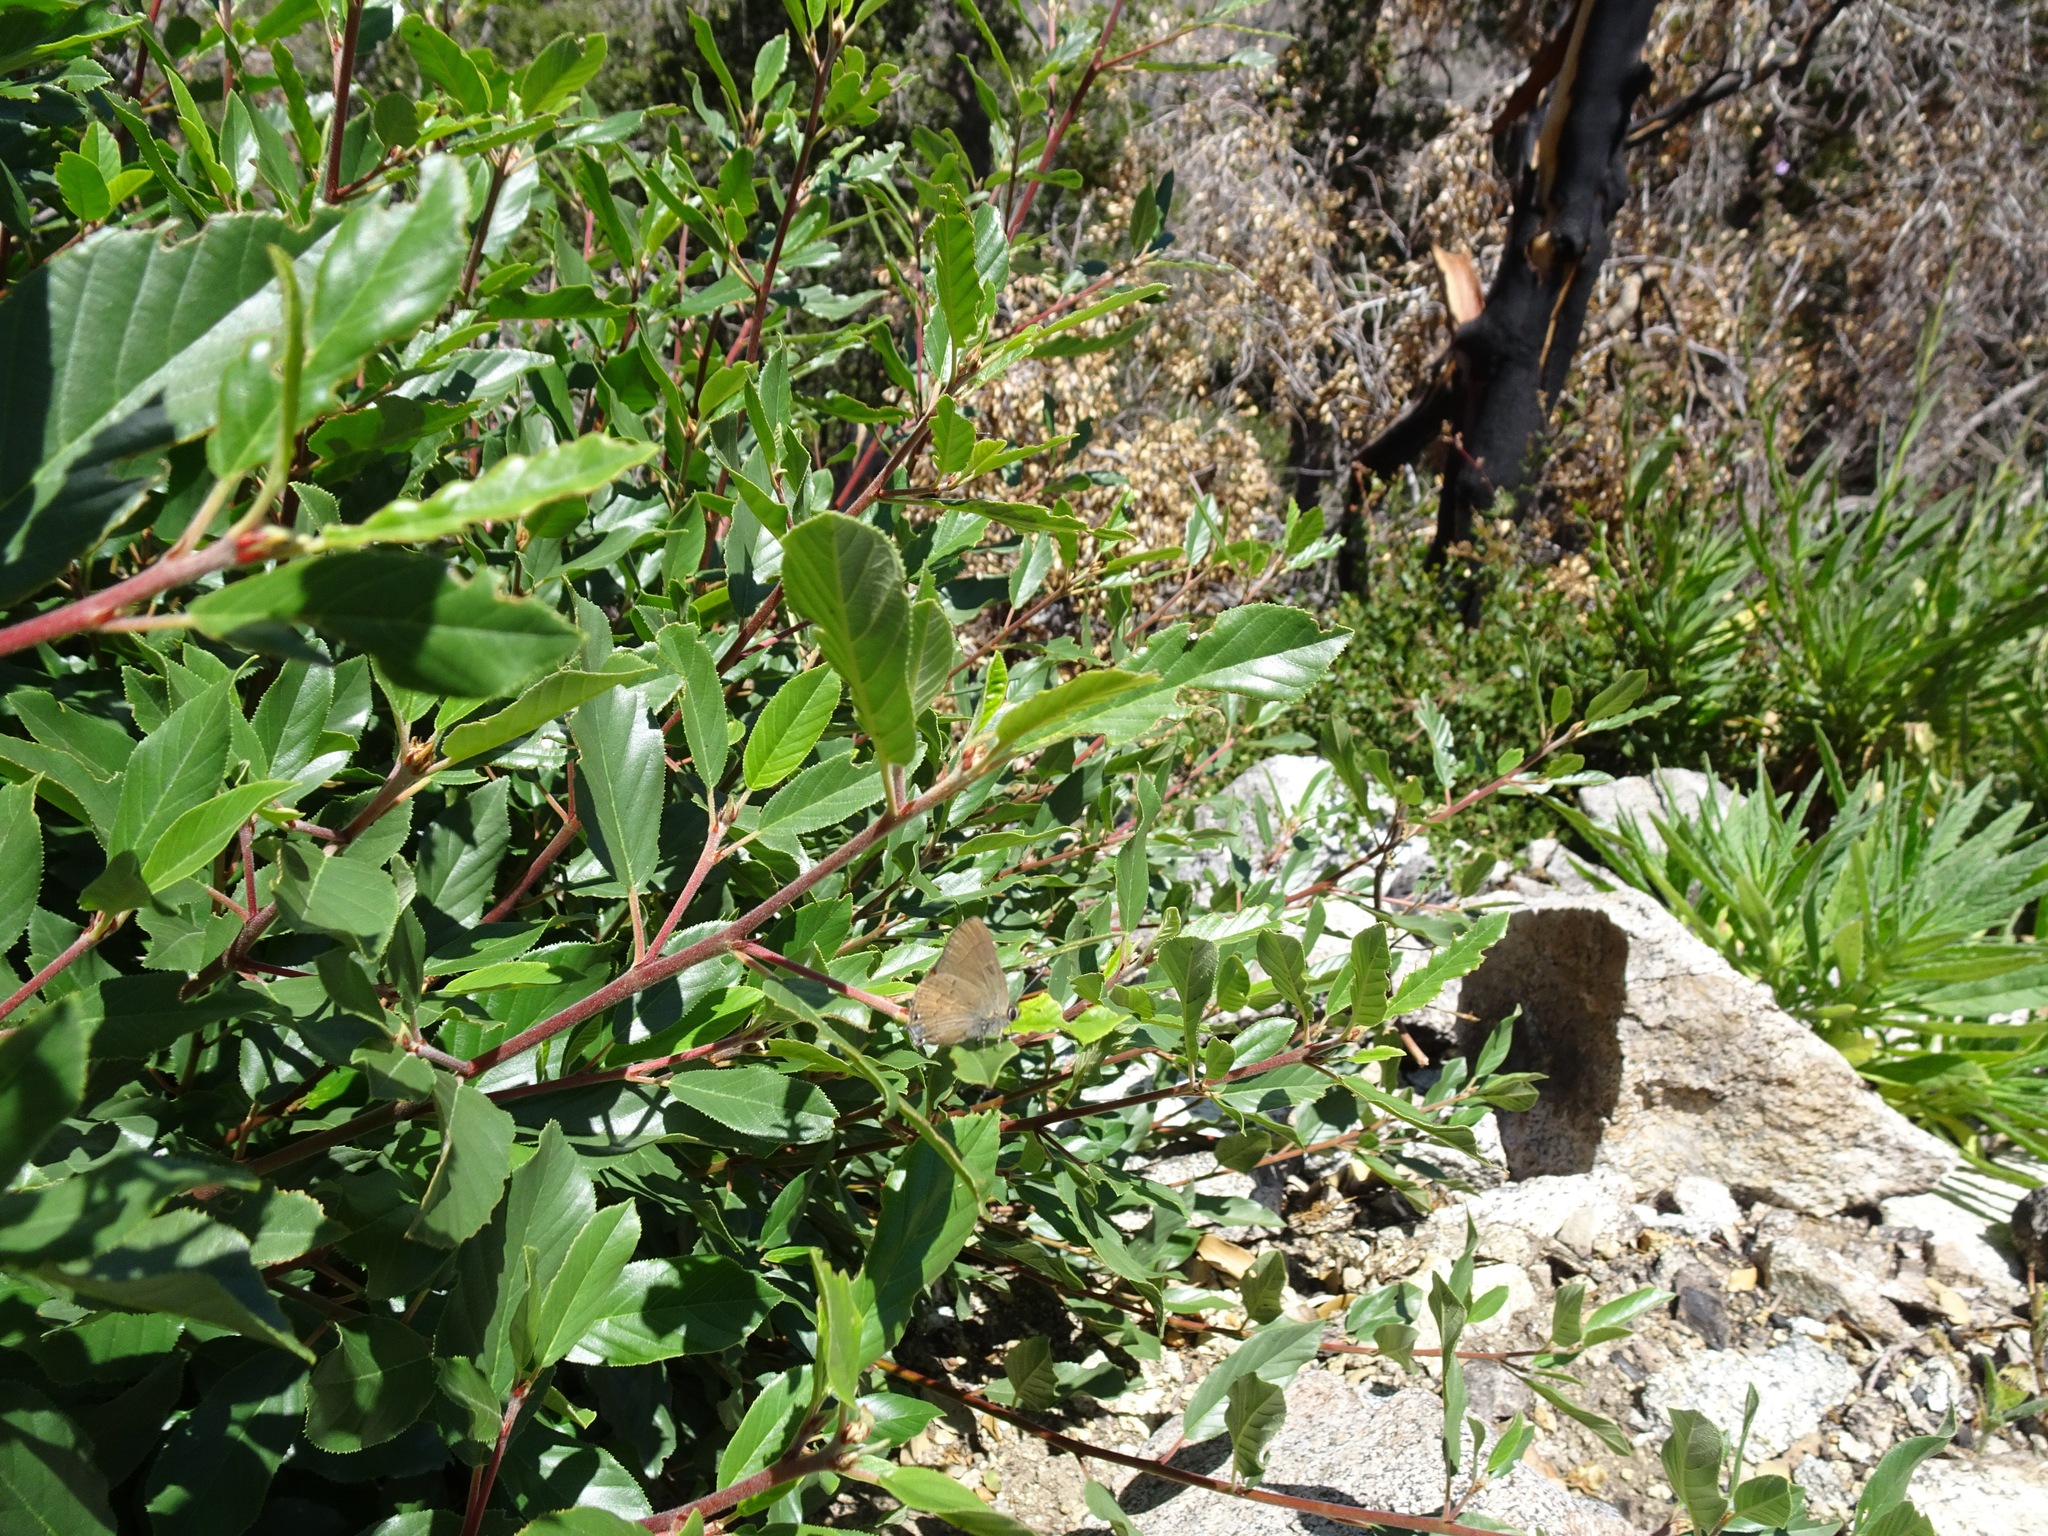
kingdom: Animalia
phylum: Arthropoda
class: Insecta
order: Lepidoptera
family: Lycaenidae
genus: Strymon
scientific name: Strymon saepium
